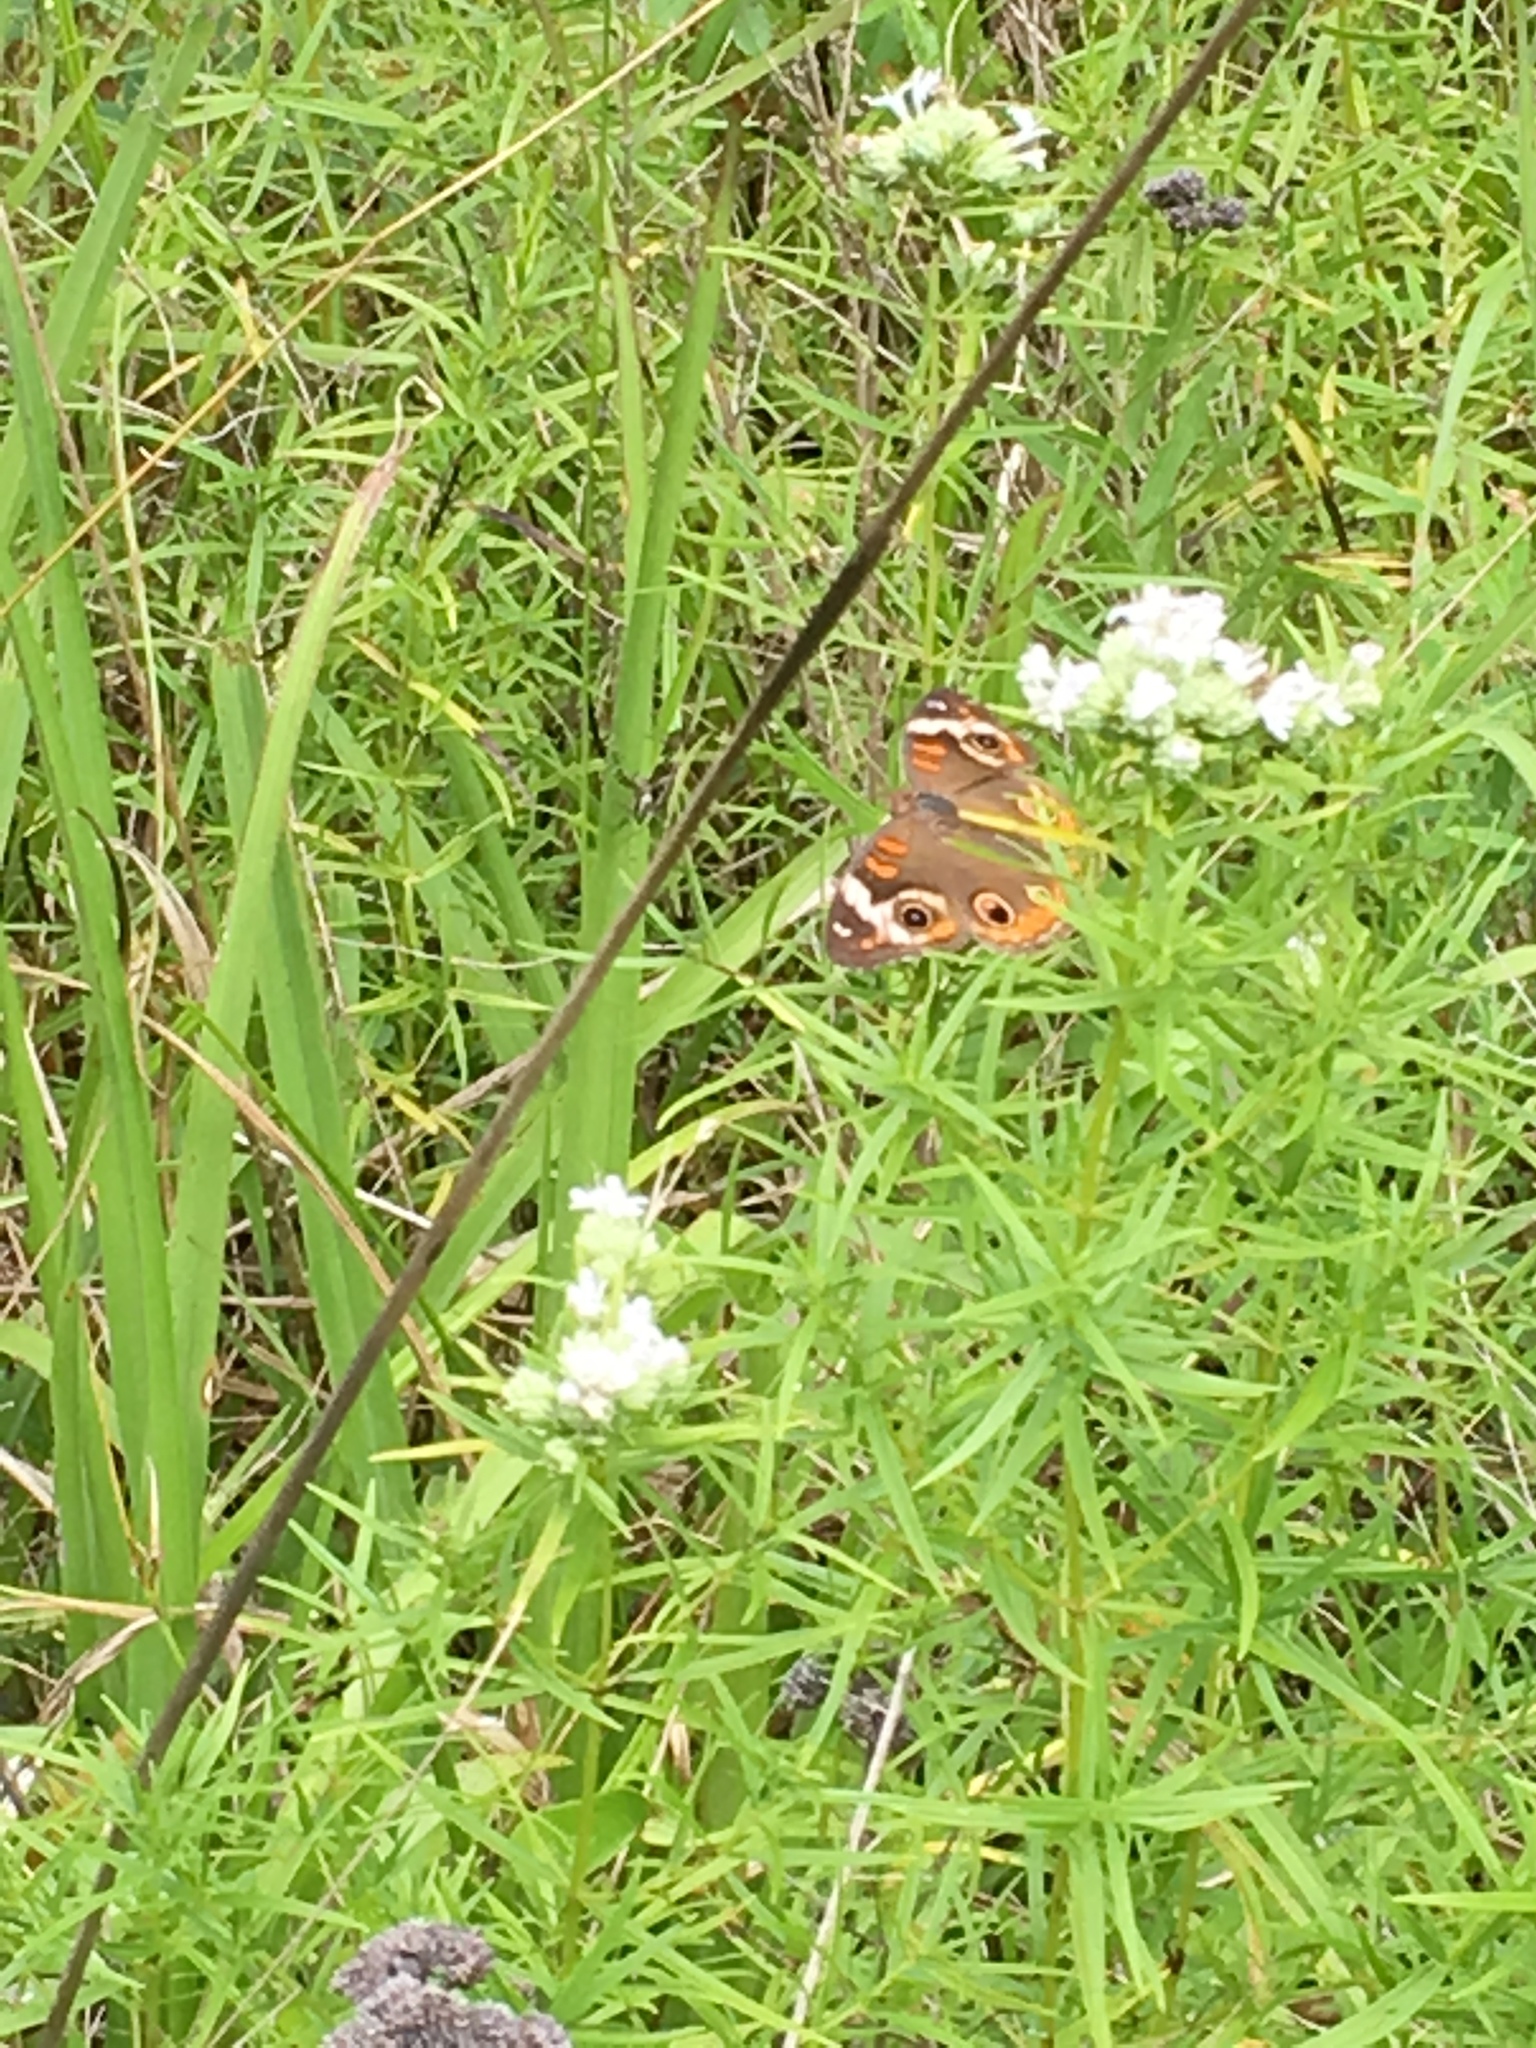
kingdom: Animalia
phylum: Arthropoda
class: Insecta
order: Lepidoptera
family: Nymphalidae
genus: Junonia
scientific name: Junonia coenia
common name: Common buckeye
